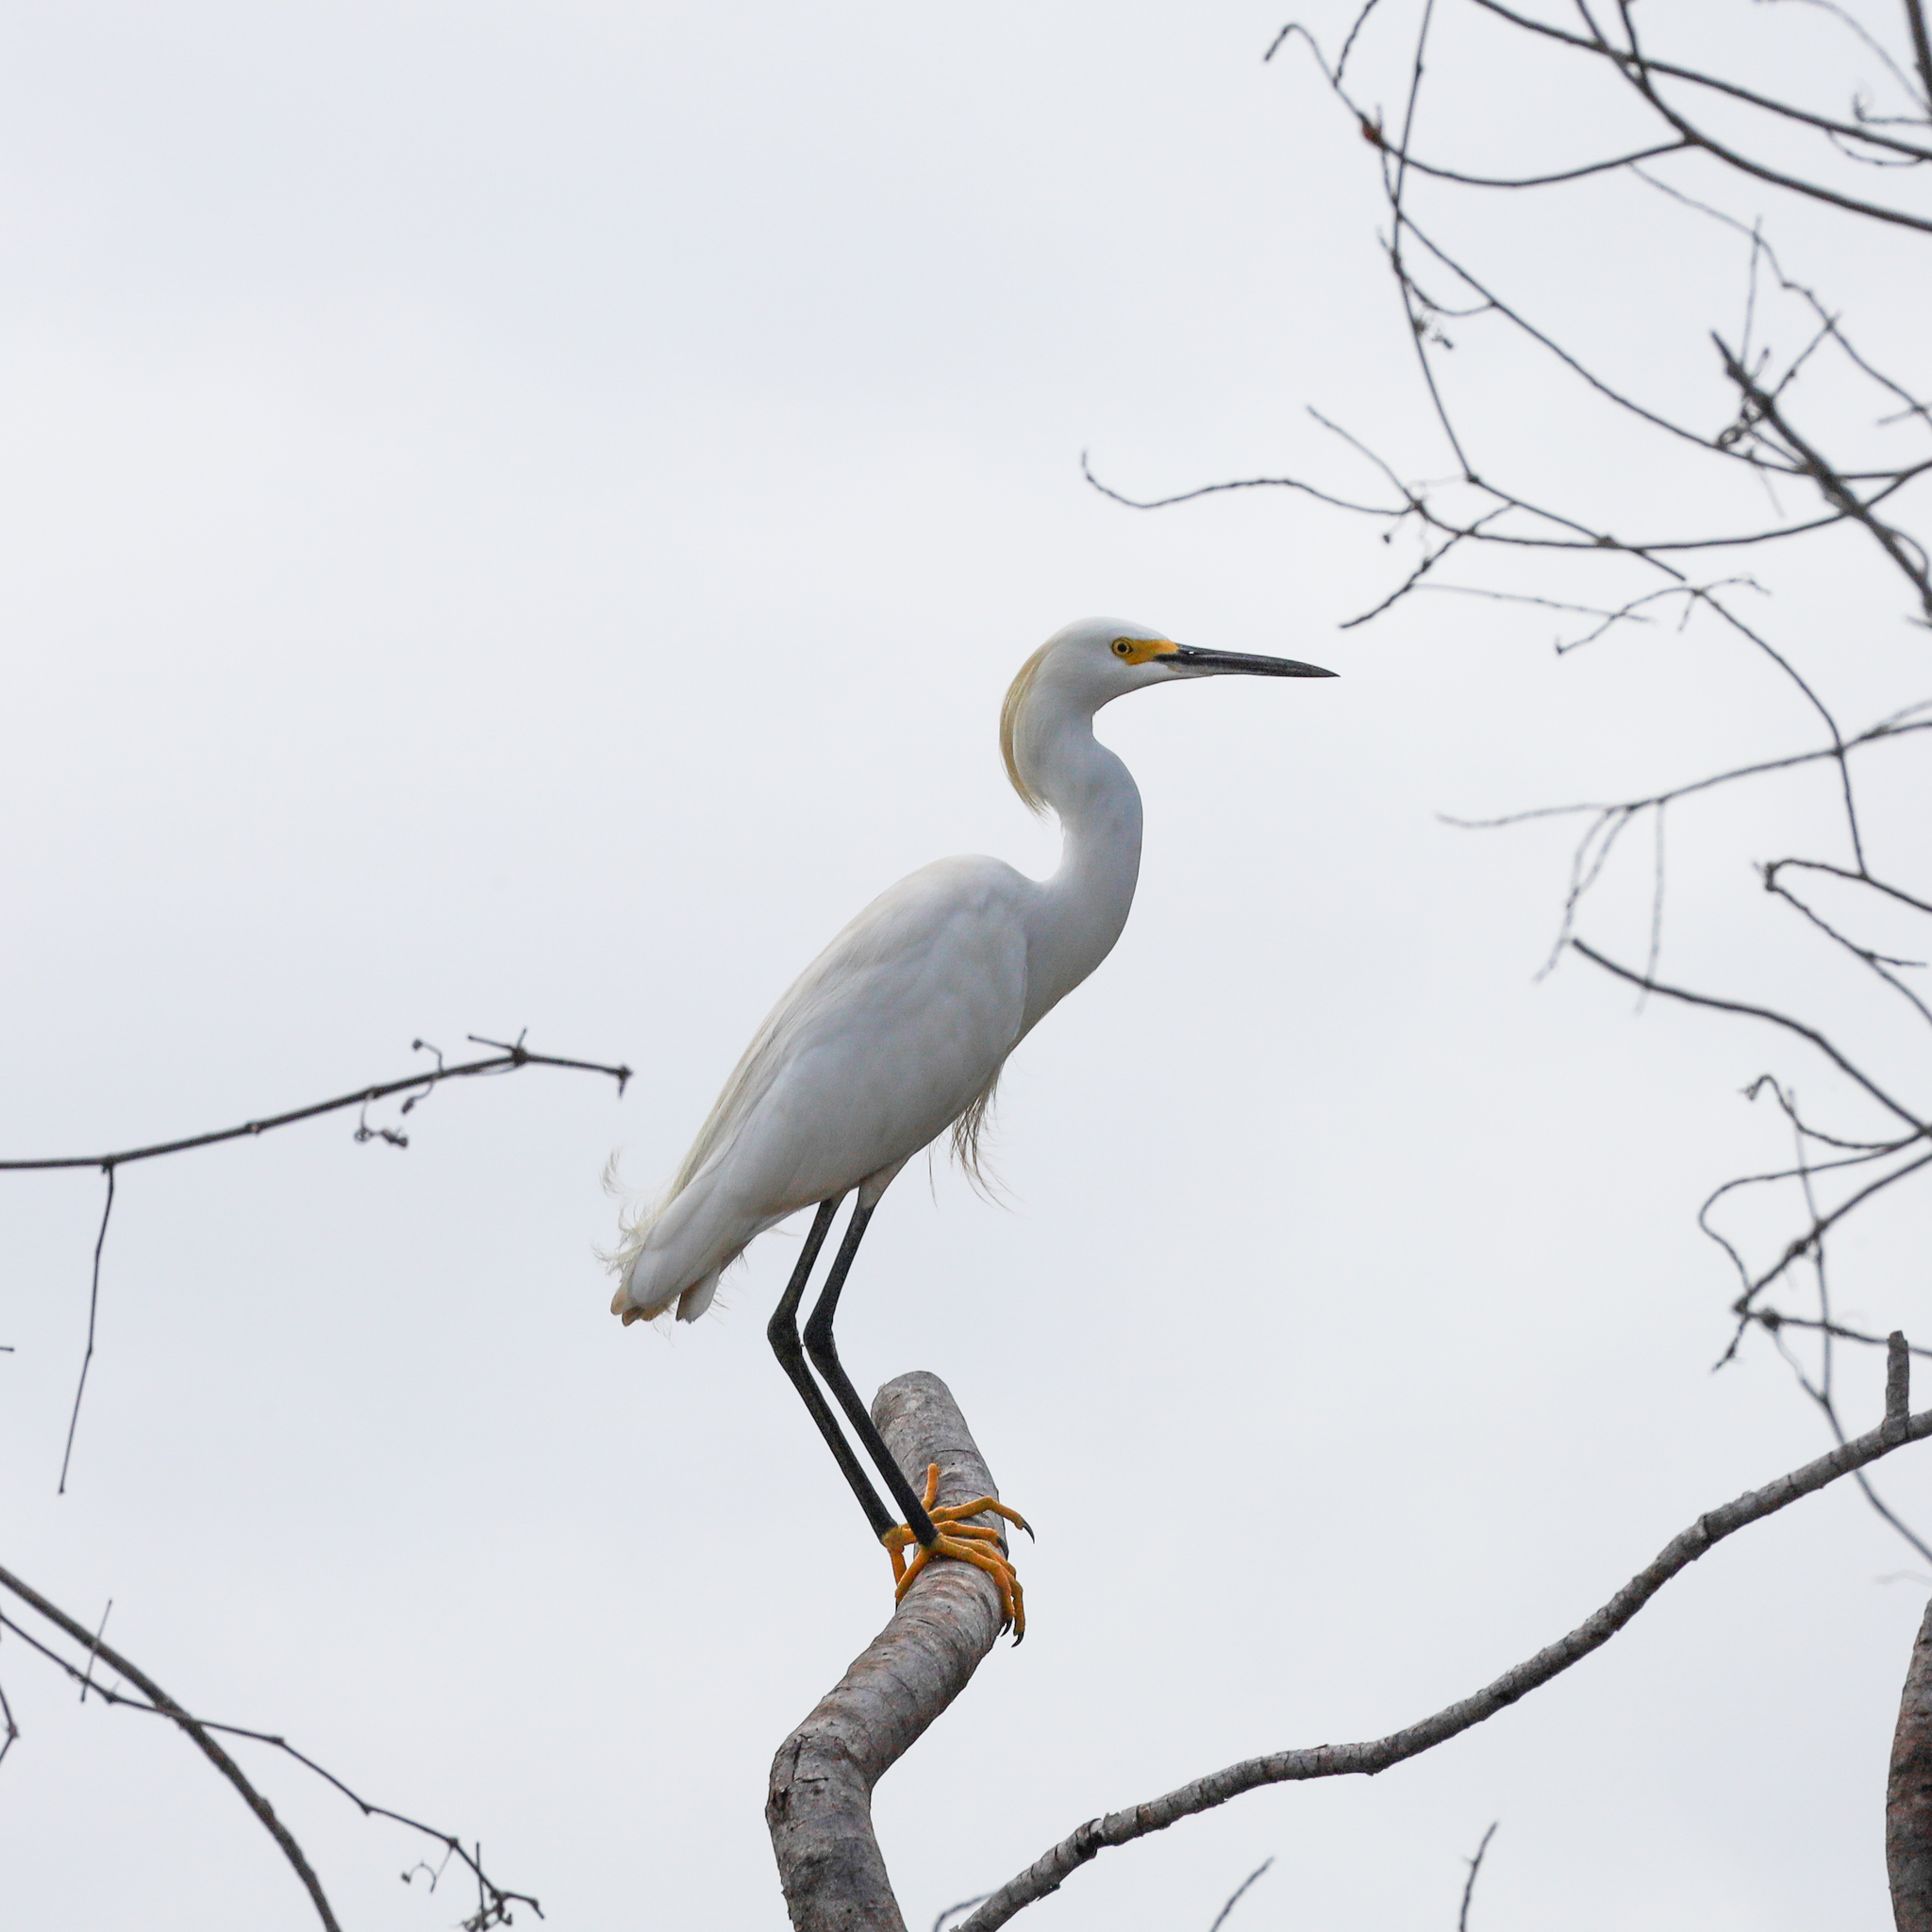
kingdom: Animalia
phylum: Chordata
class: Aves
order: Pelecaniformes
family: Ardeidae
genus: Egretta
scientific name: Egretta thula
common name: Snowy egret
